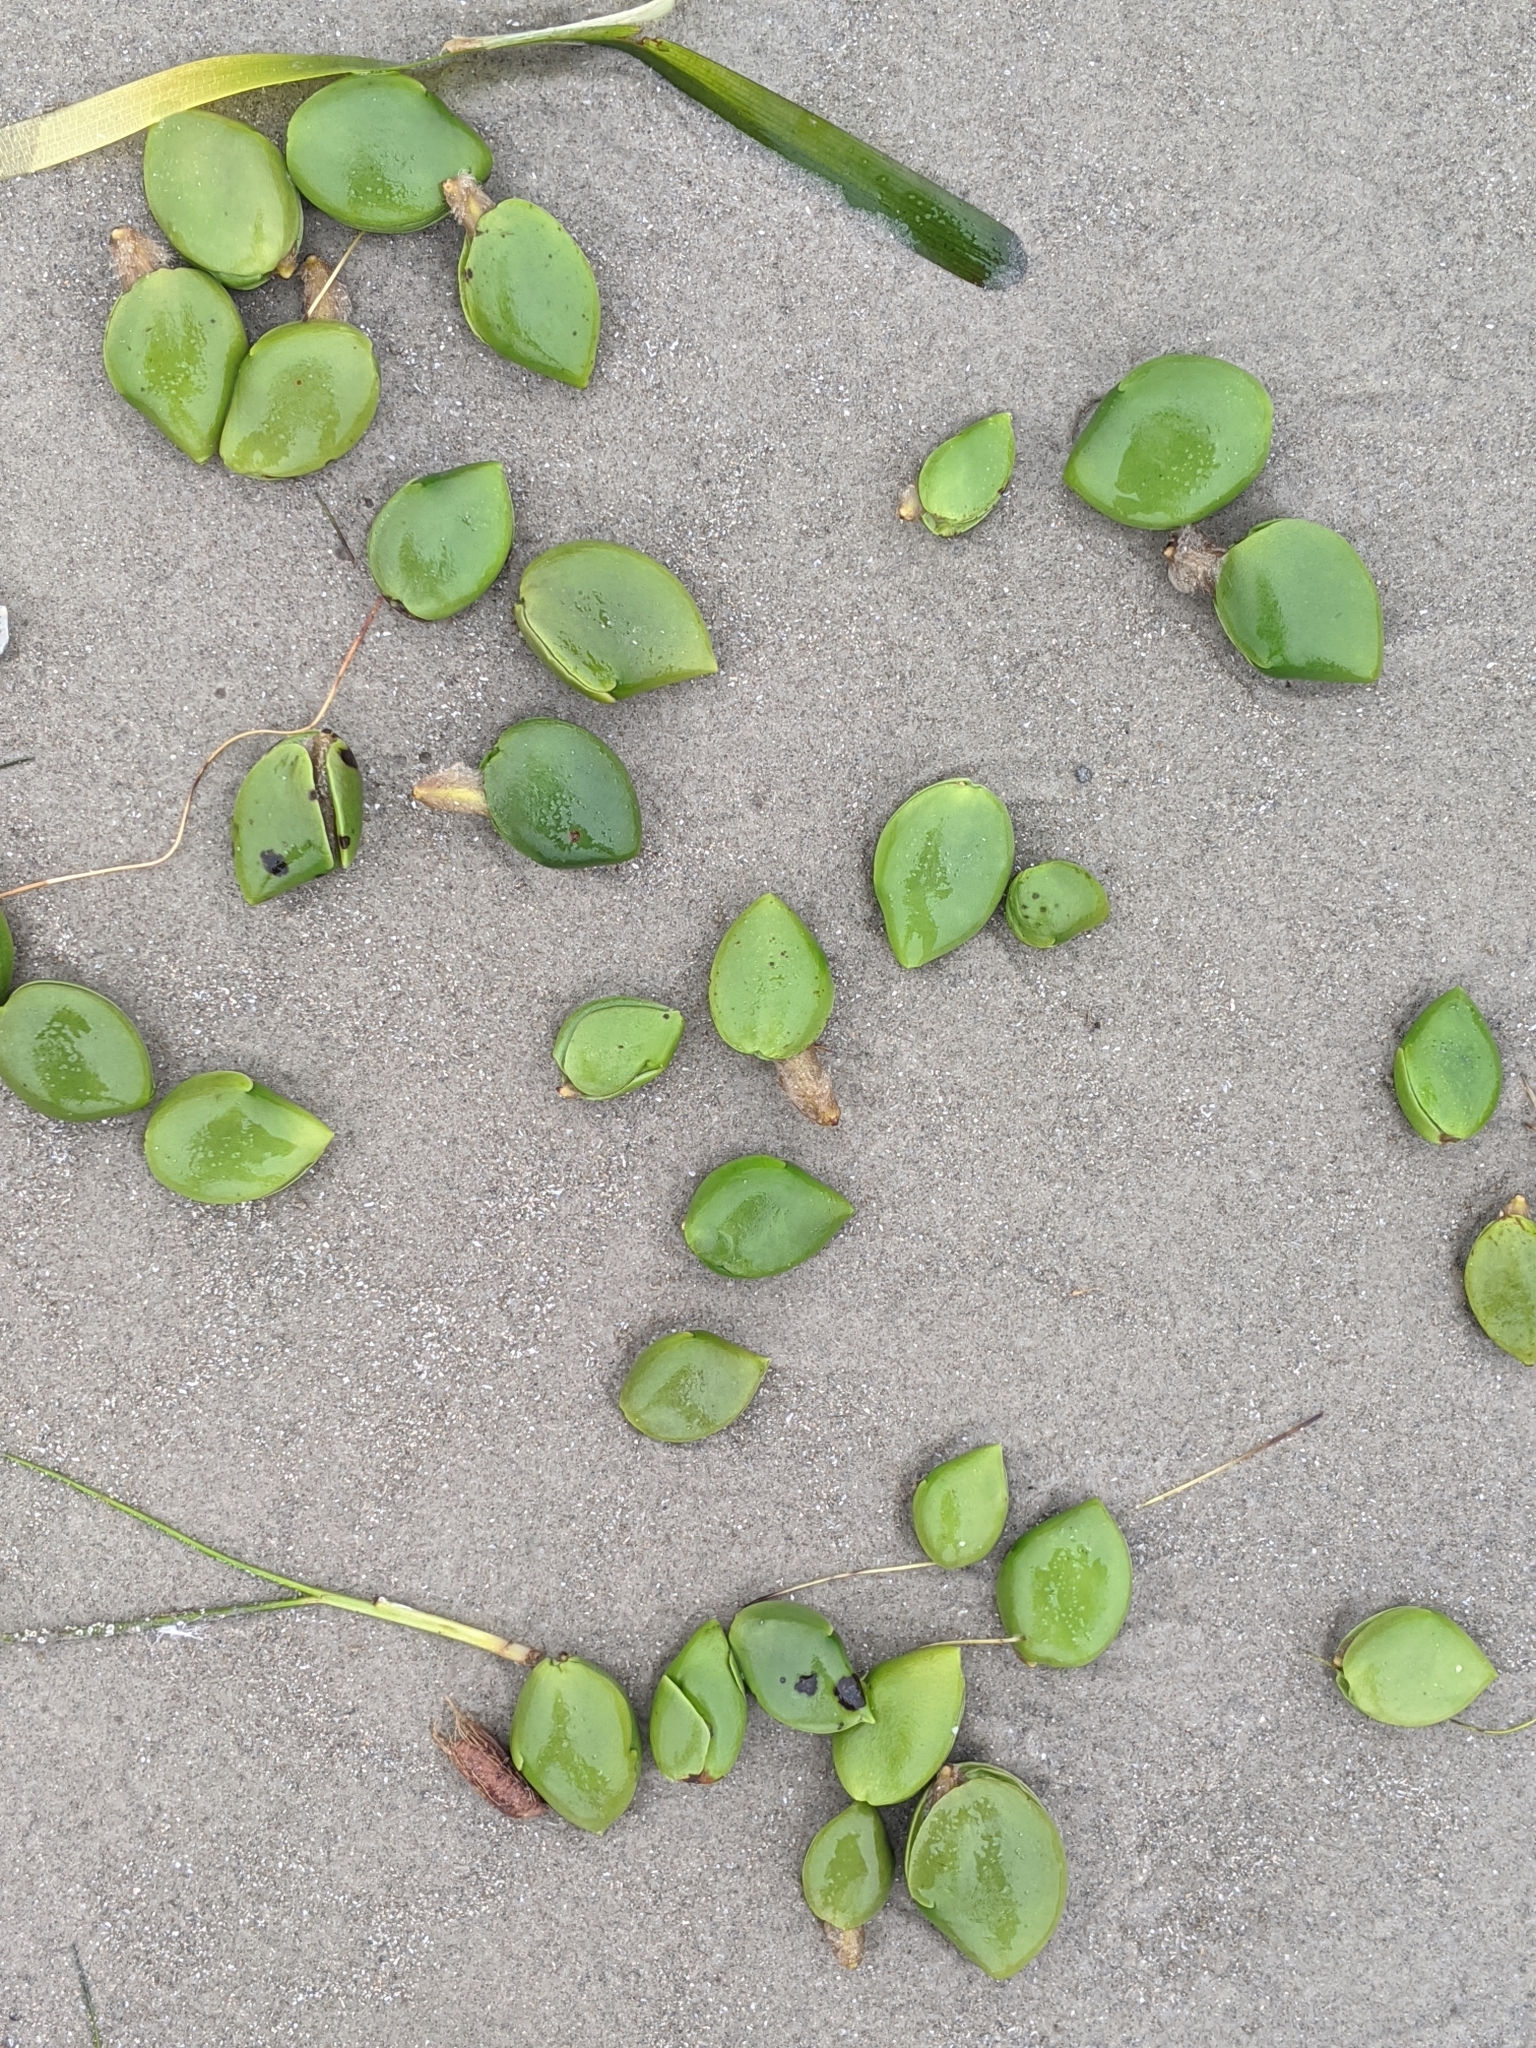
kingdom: Plantae
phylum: Tracheophyta
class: Magnoliopsida
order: Lamiales
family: Acanthaceae
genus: Avicennia
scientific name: Avicennia germinans
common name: Black mangrove
